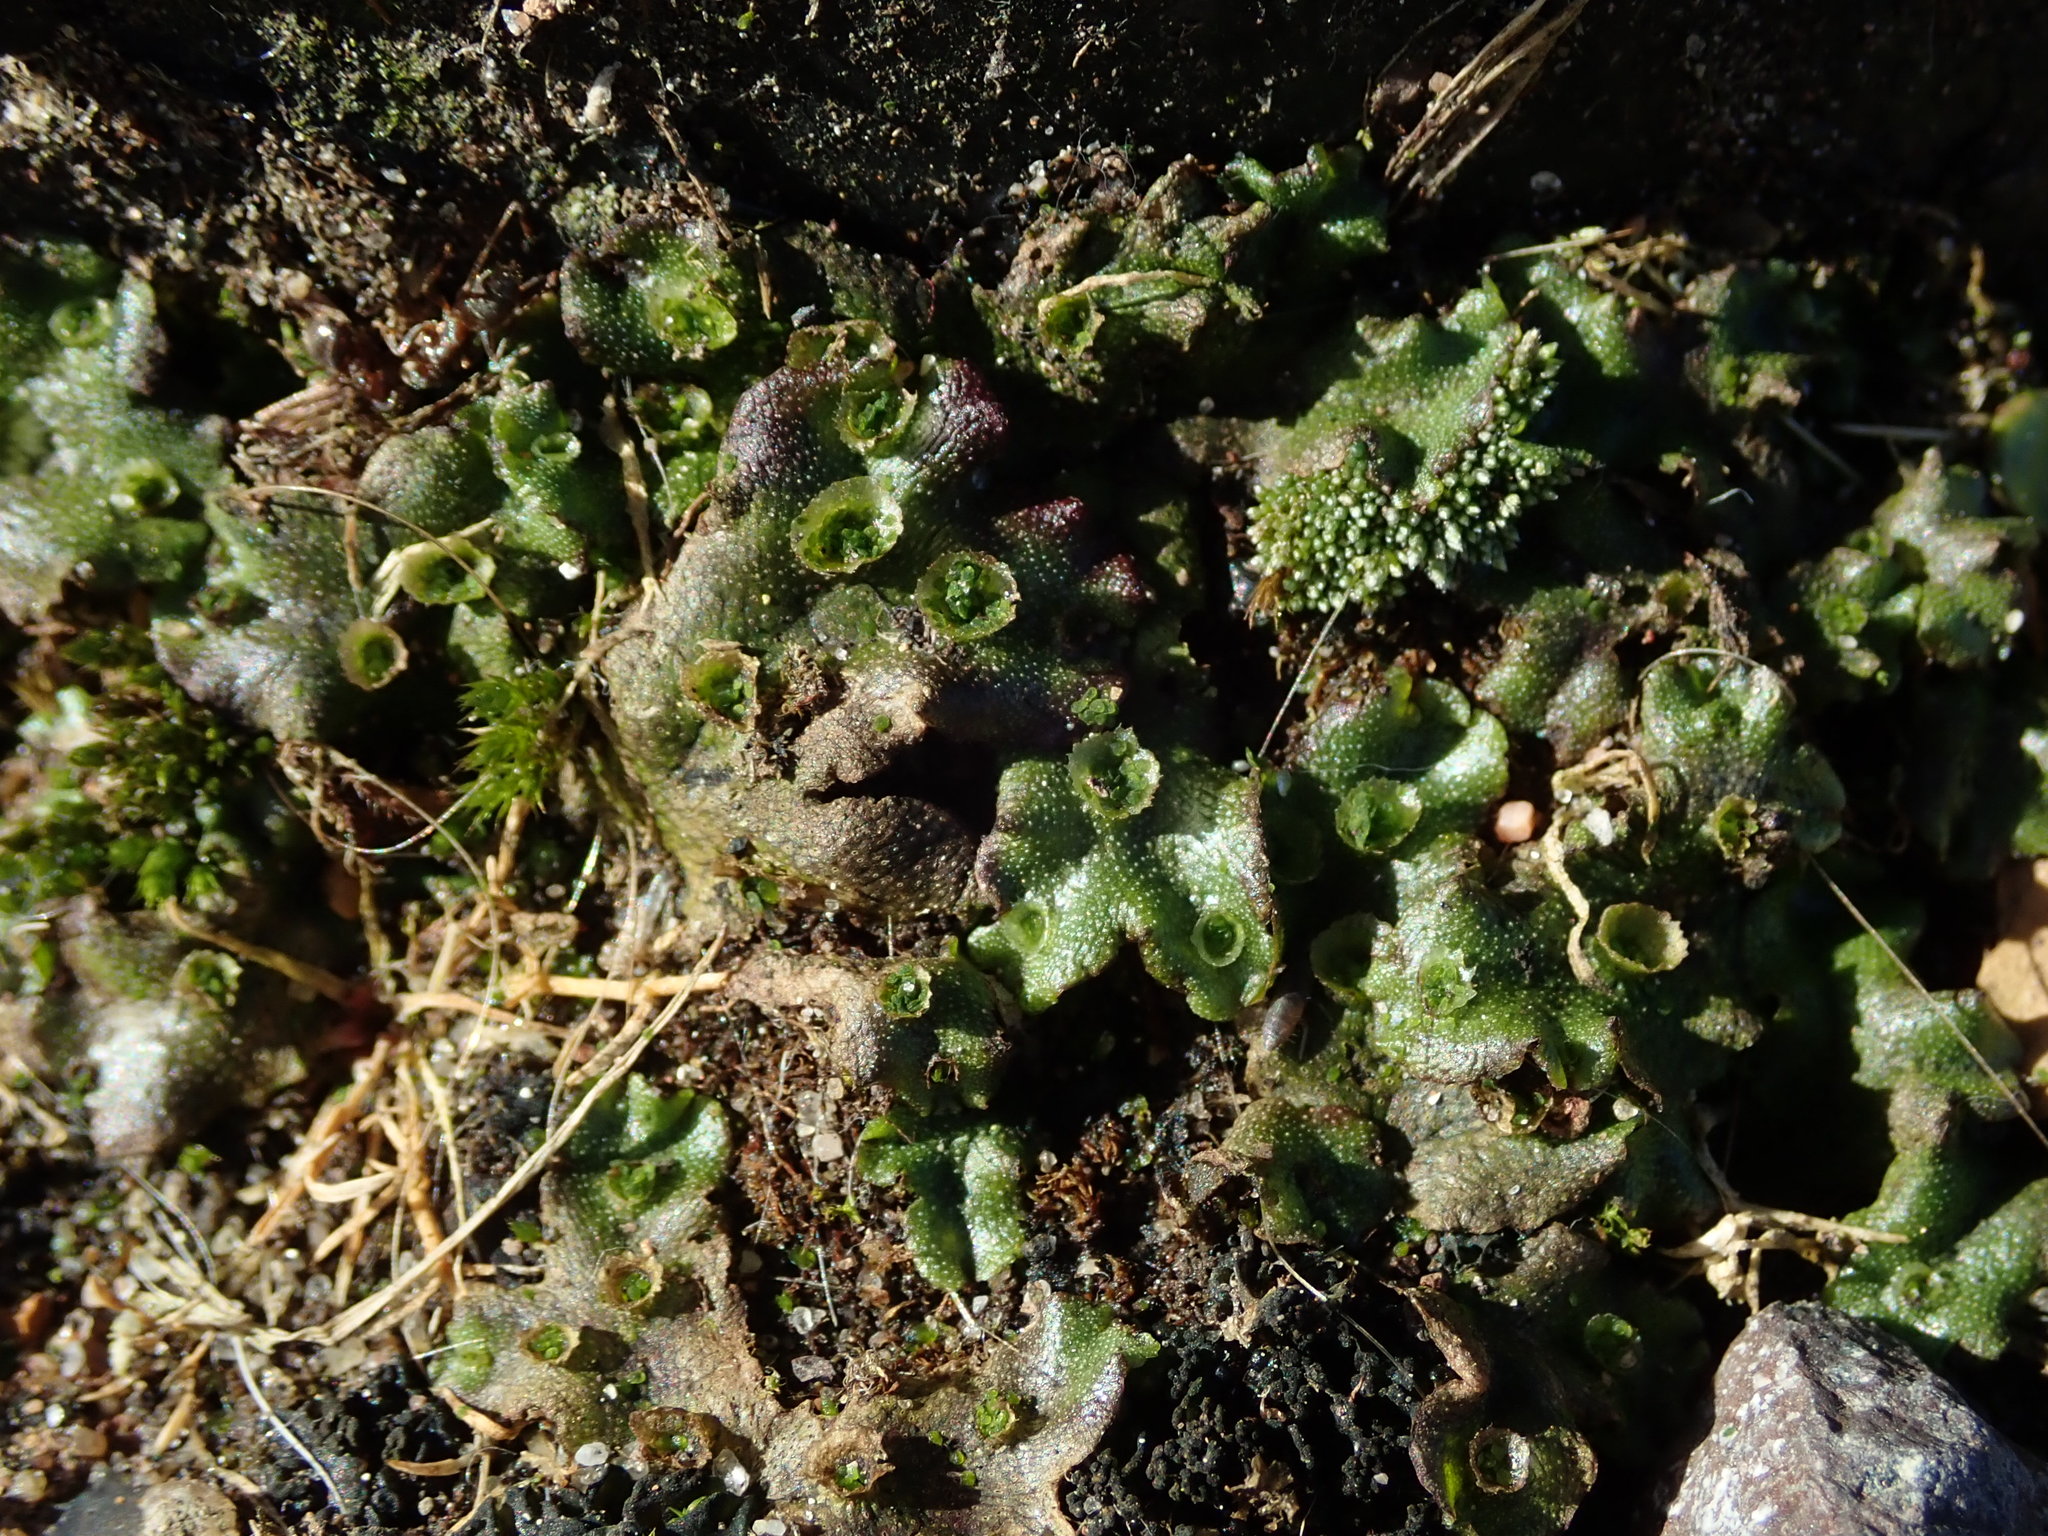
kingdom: Plantae
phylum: Marchantiophyta
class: Marchantiopsida
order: Marchantiales
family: Marchantiaceae
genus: Marchantia
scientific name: Marchantia polymorpha
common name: Common liverwort
